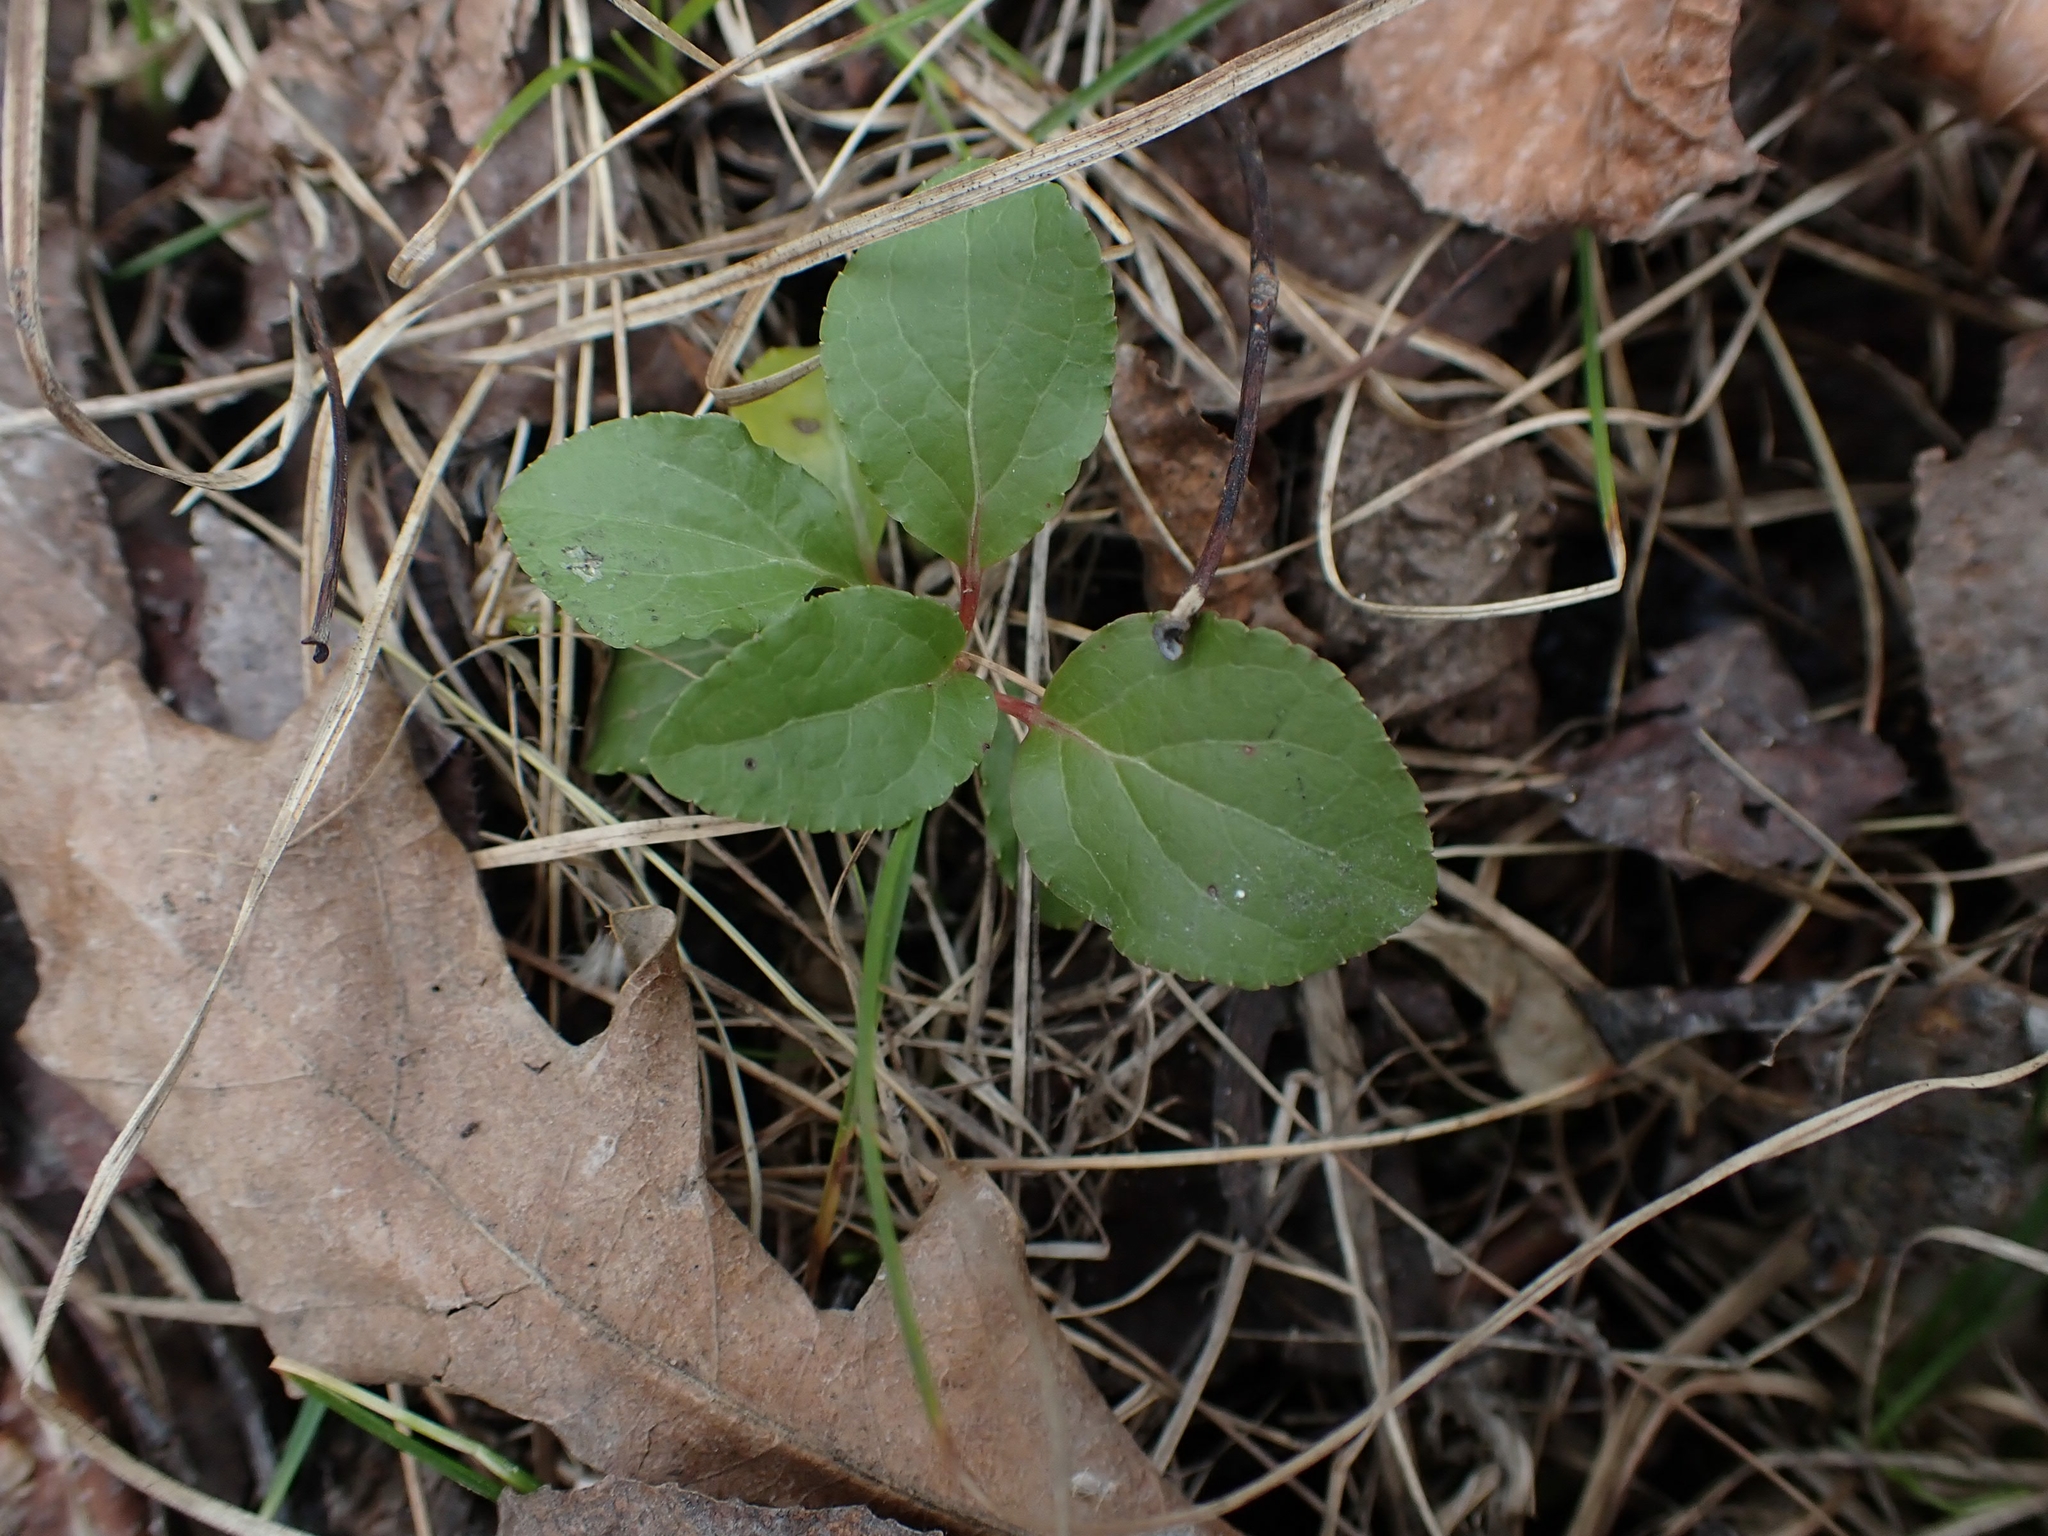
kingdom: Plantae
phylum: Tracheophyta
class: Magnoliopsida
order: Ericales
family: Ericaceae
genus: Orthilia
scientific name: Orthilia secunda
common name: One-sided orthilia
